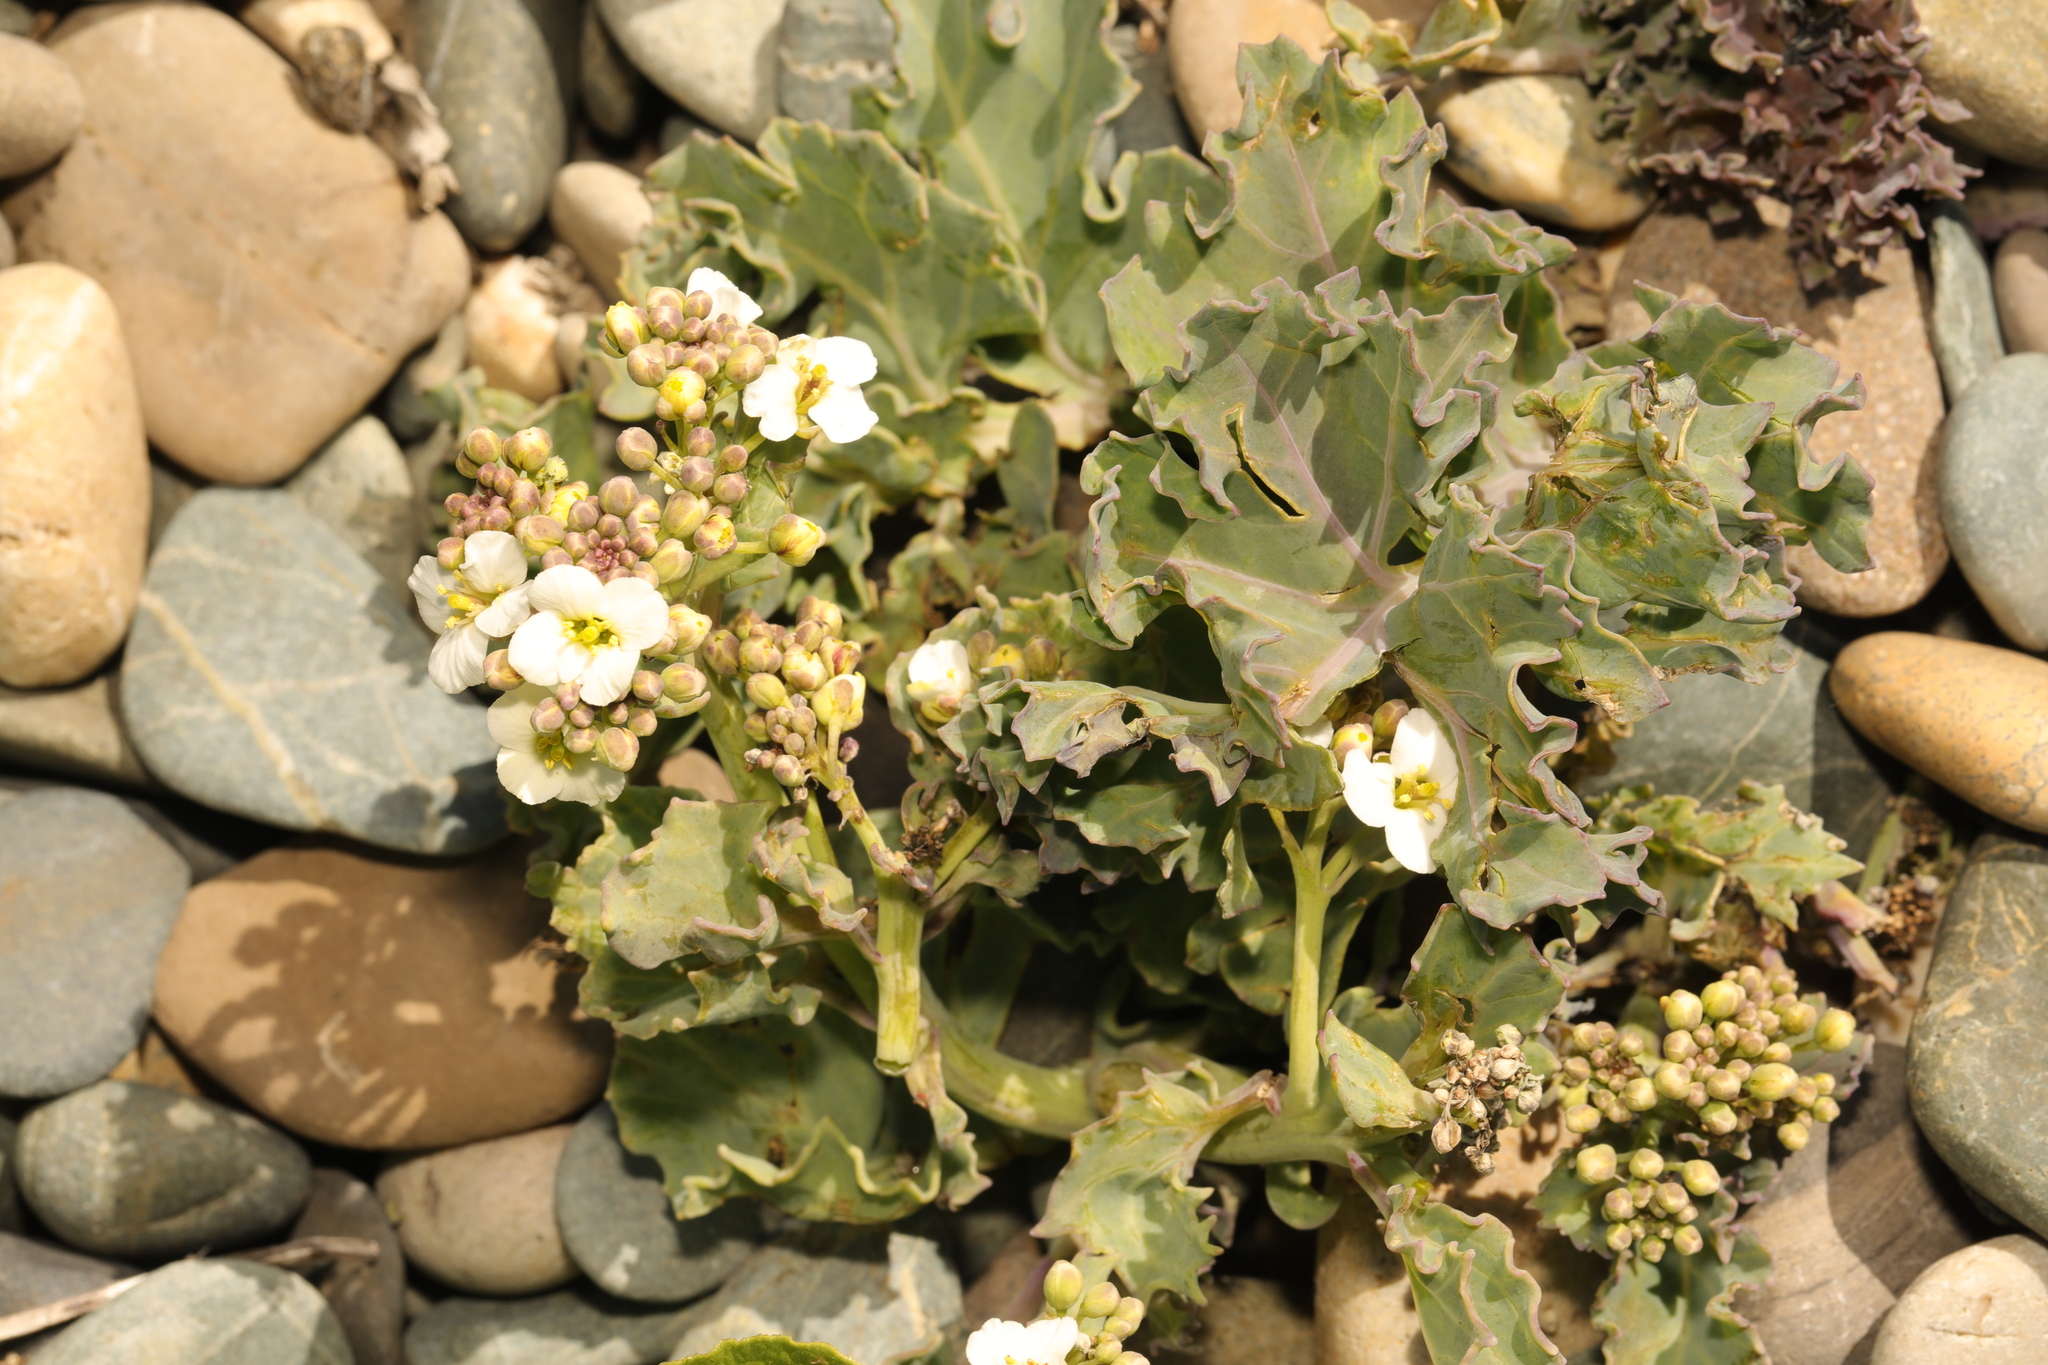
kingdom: Plantae
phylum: Tracheophyta
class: Magnoliopsida
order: Brassicales
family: Brassicaceae
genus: Crambe
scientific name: Crambe maritima
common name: Sea-kale
